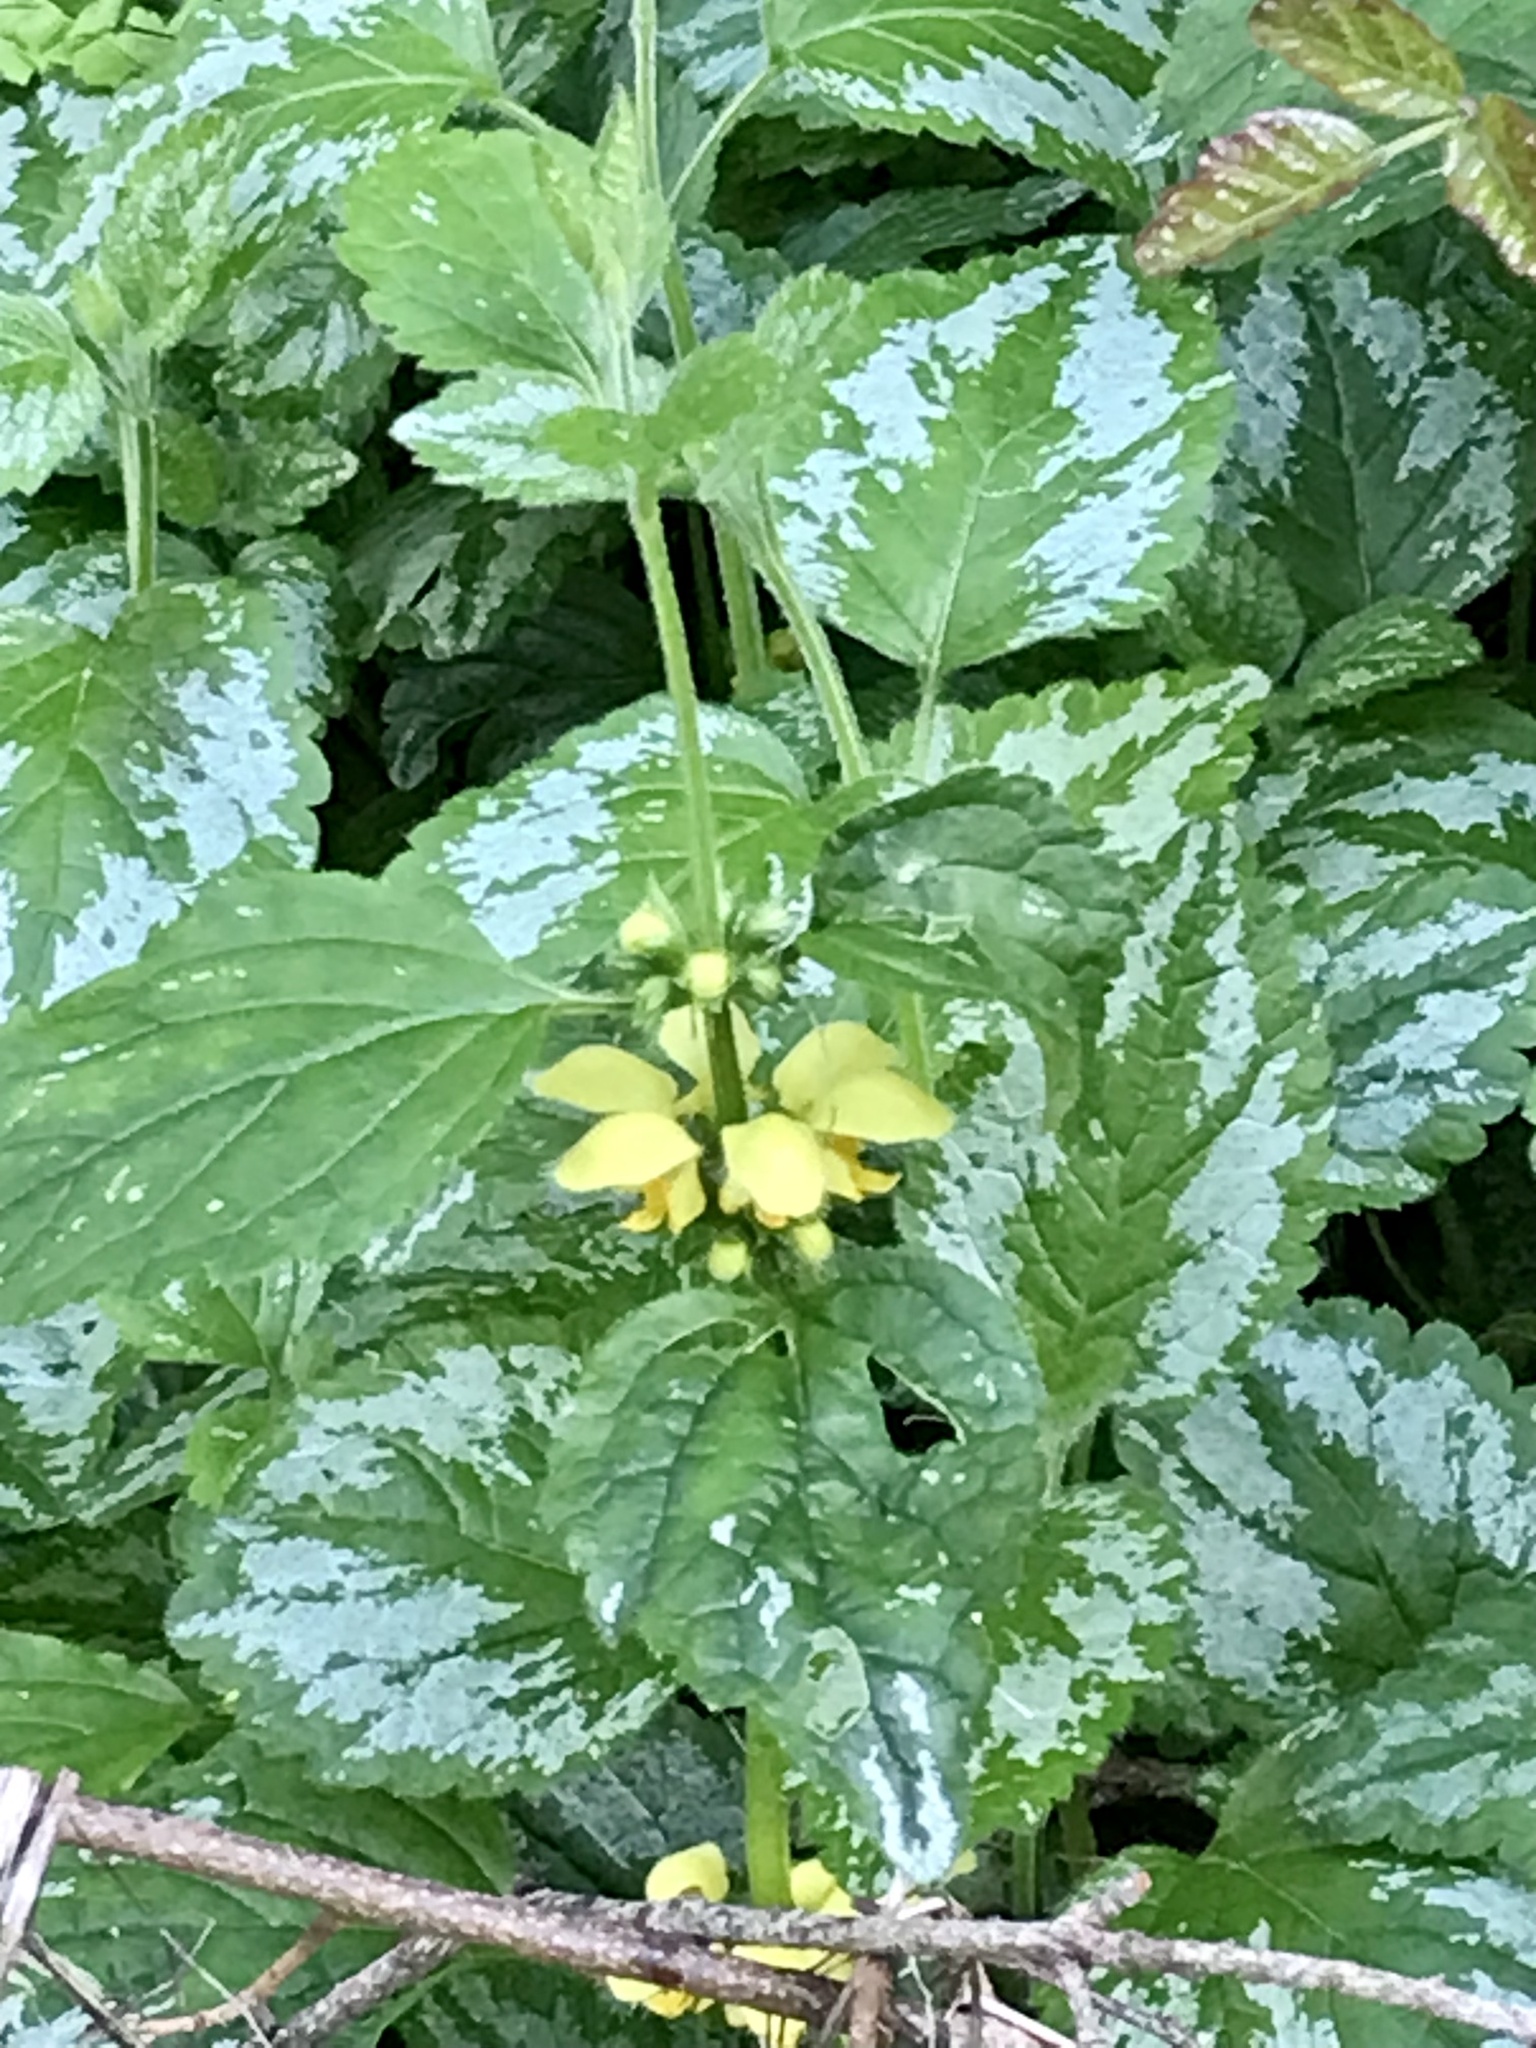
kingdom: Plantae
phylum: Tracheophyta
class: Magnoliopsida
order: Lamiales
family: Lamiaceae
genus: Lamium
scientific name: Lamium galeobdolon
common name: Yellow archangel
